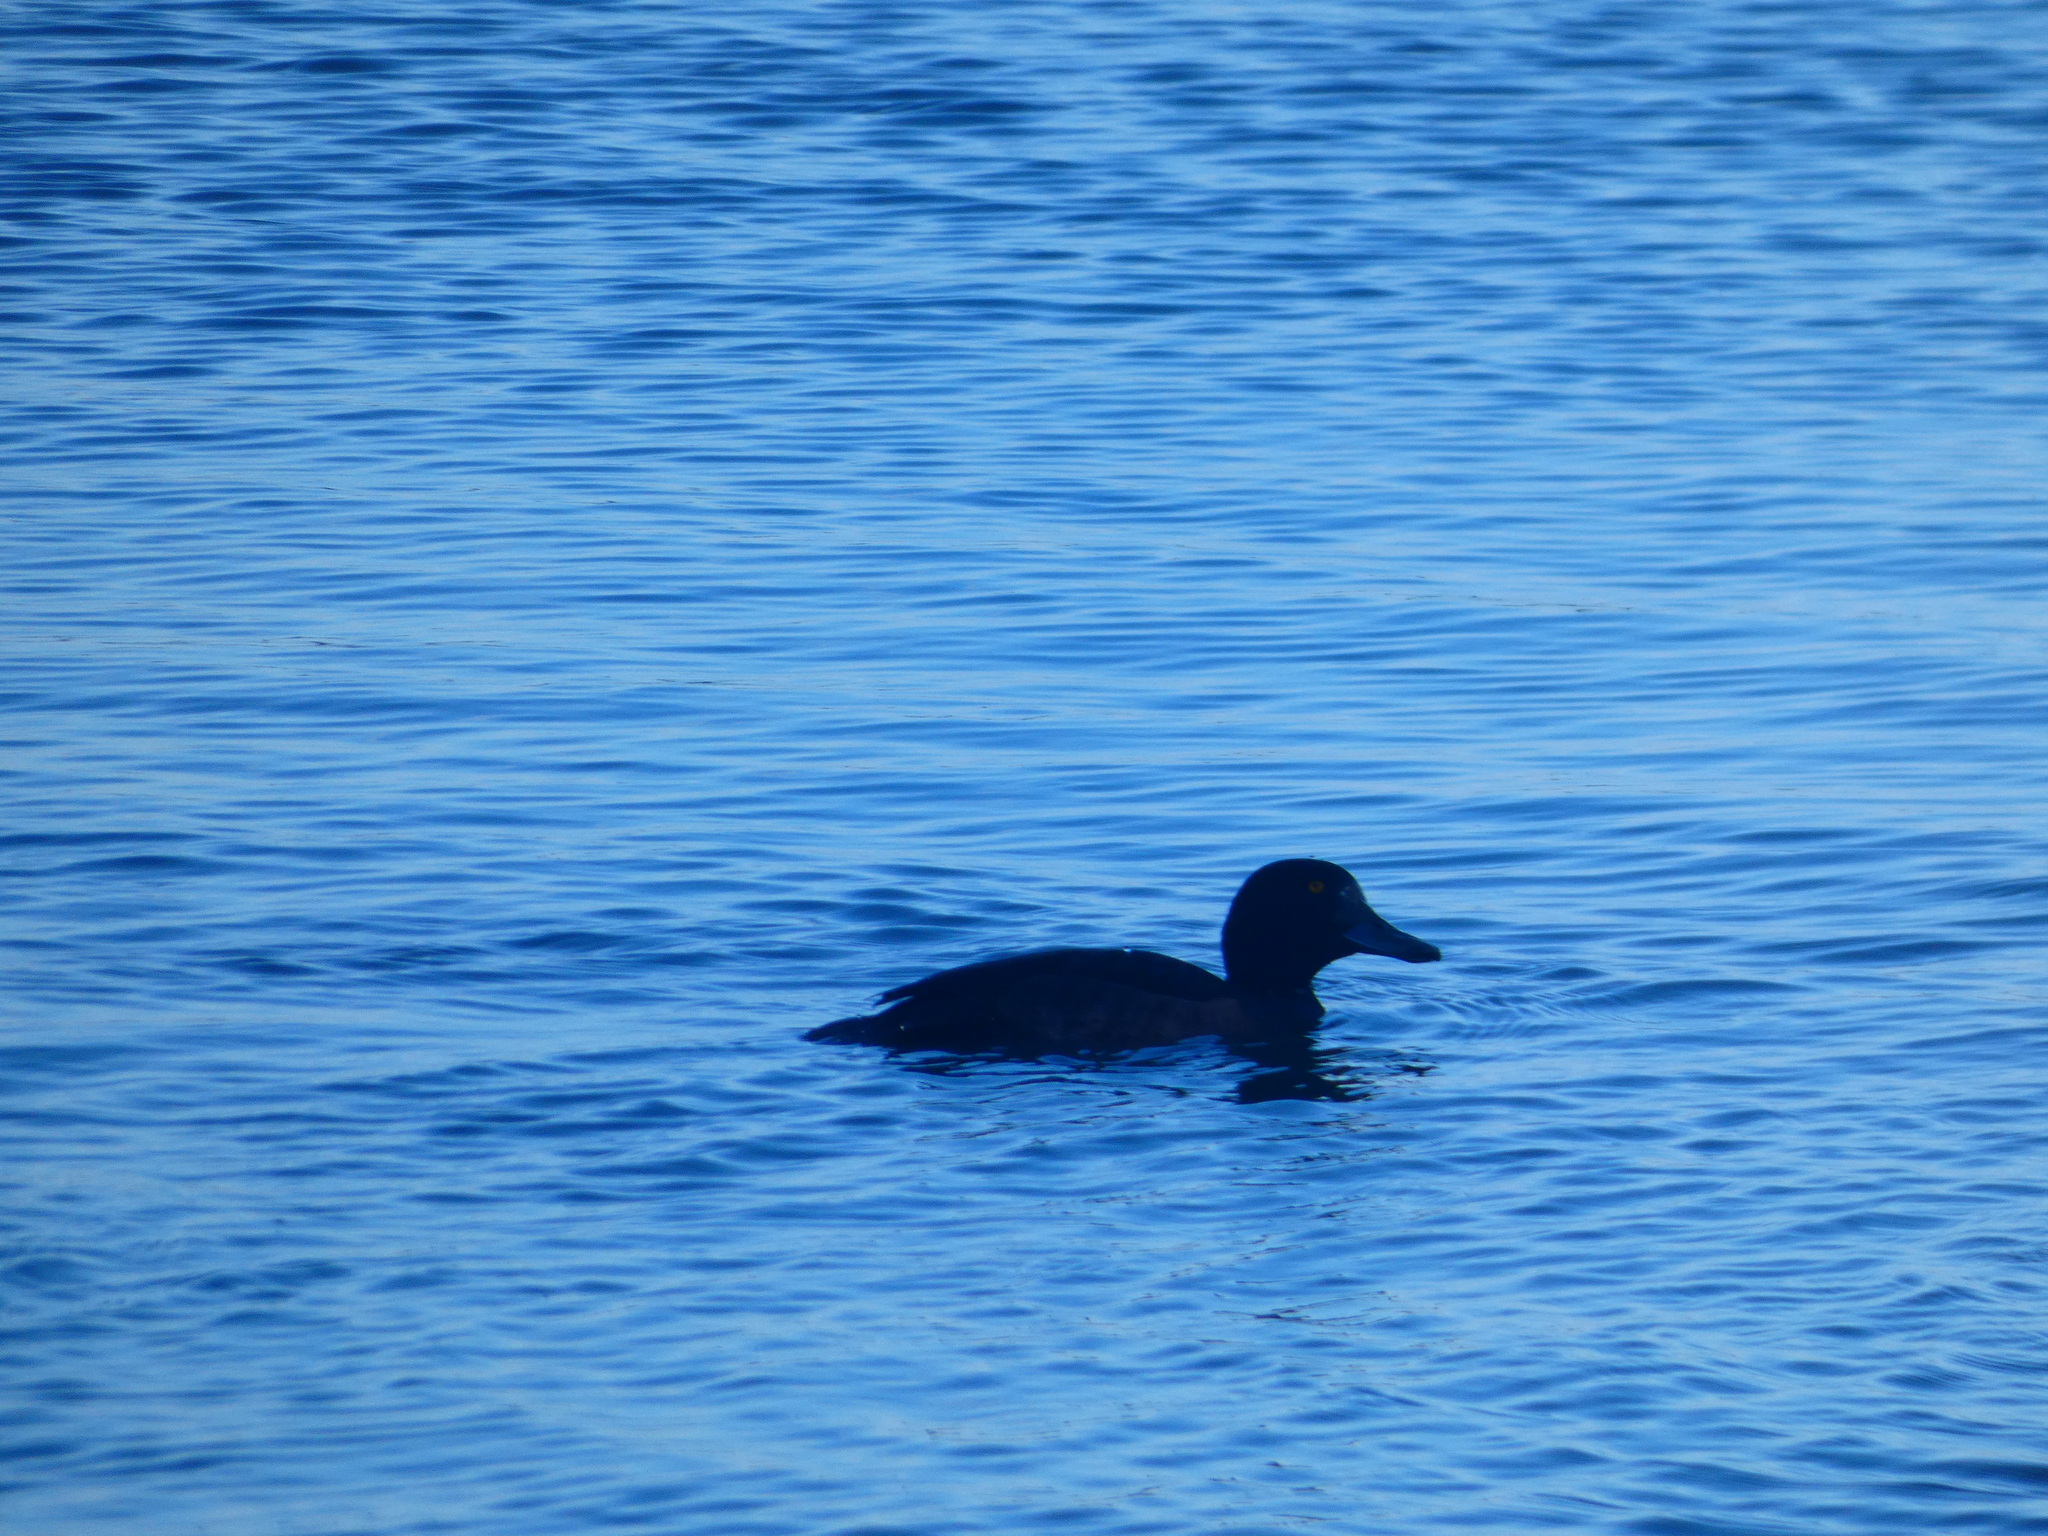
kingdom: Animalia
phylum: Chordata
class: Aves
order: Anseriformes
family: Anatidae
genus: Aythya
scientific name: Aythya fuligula
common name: Tufted duck
